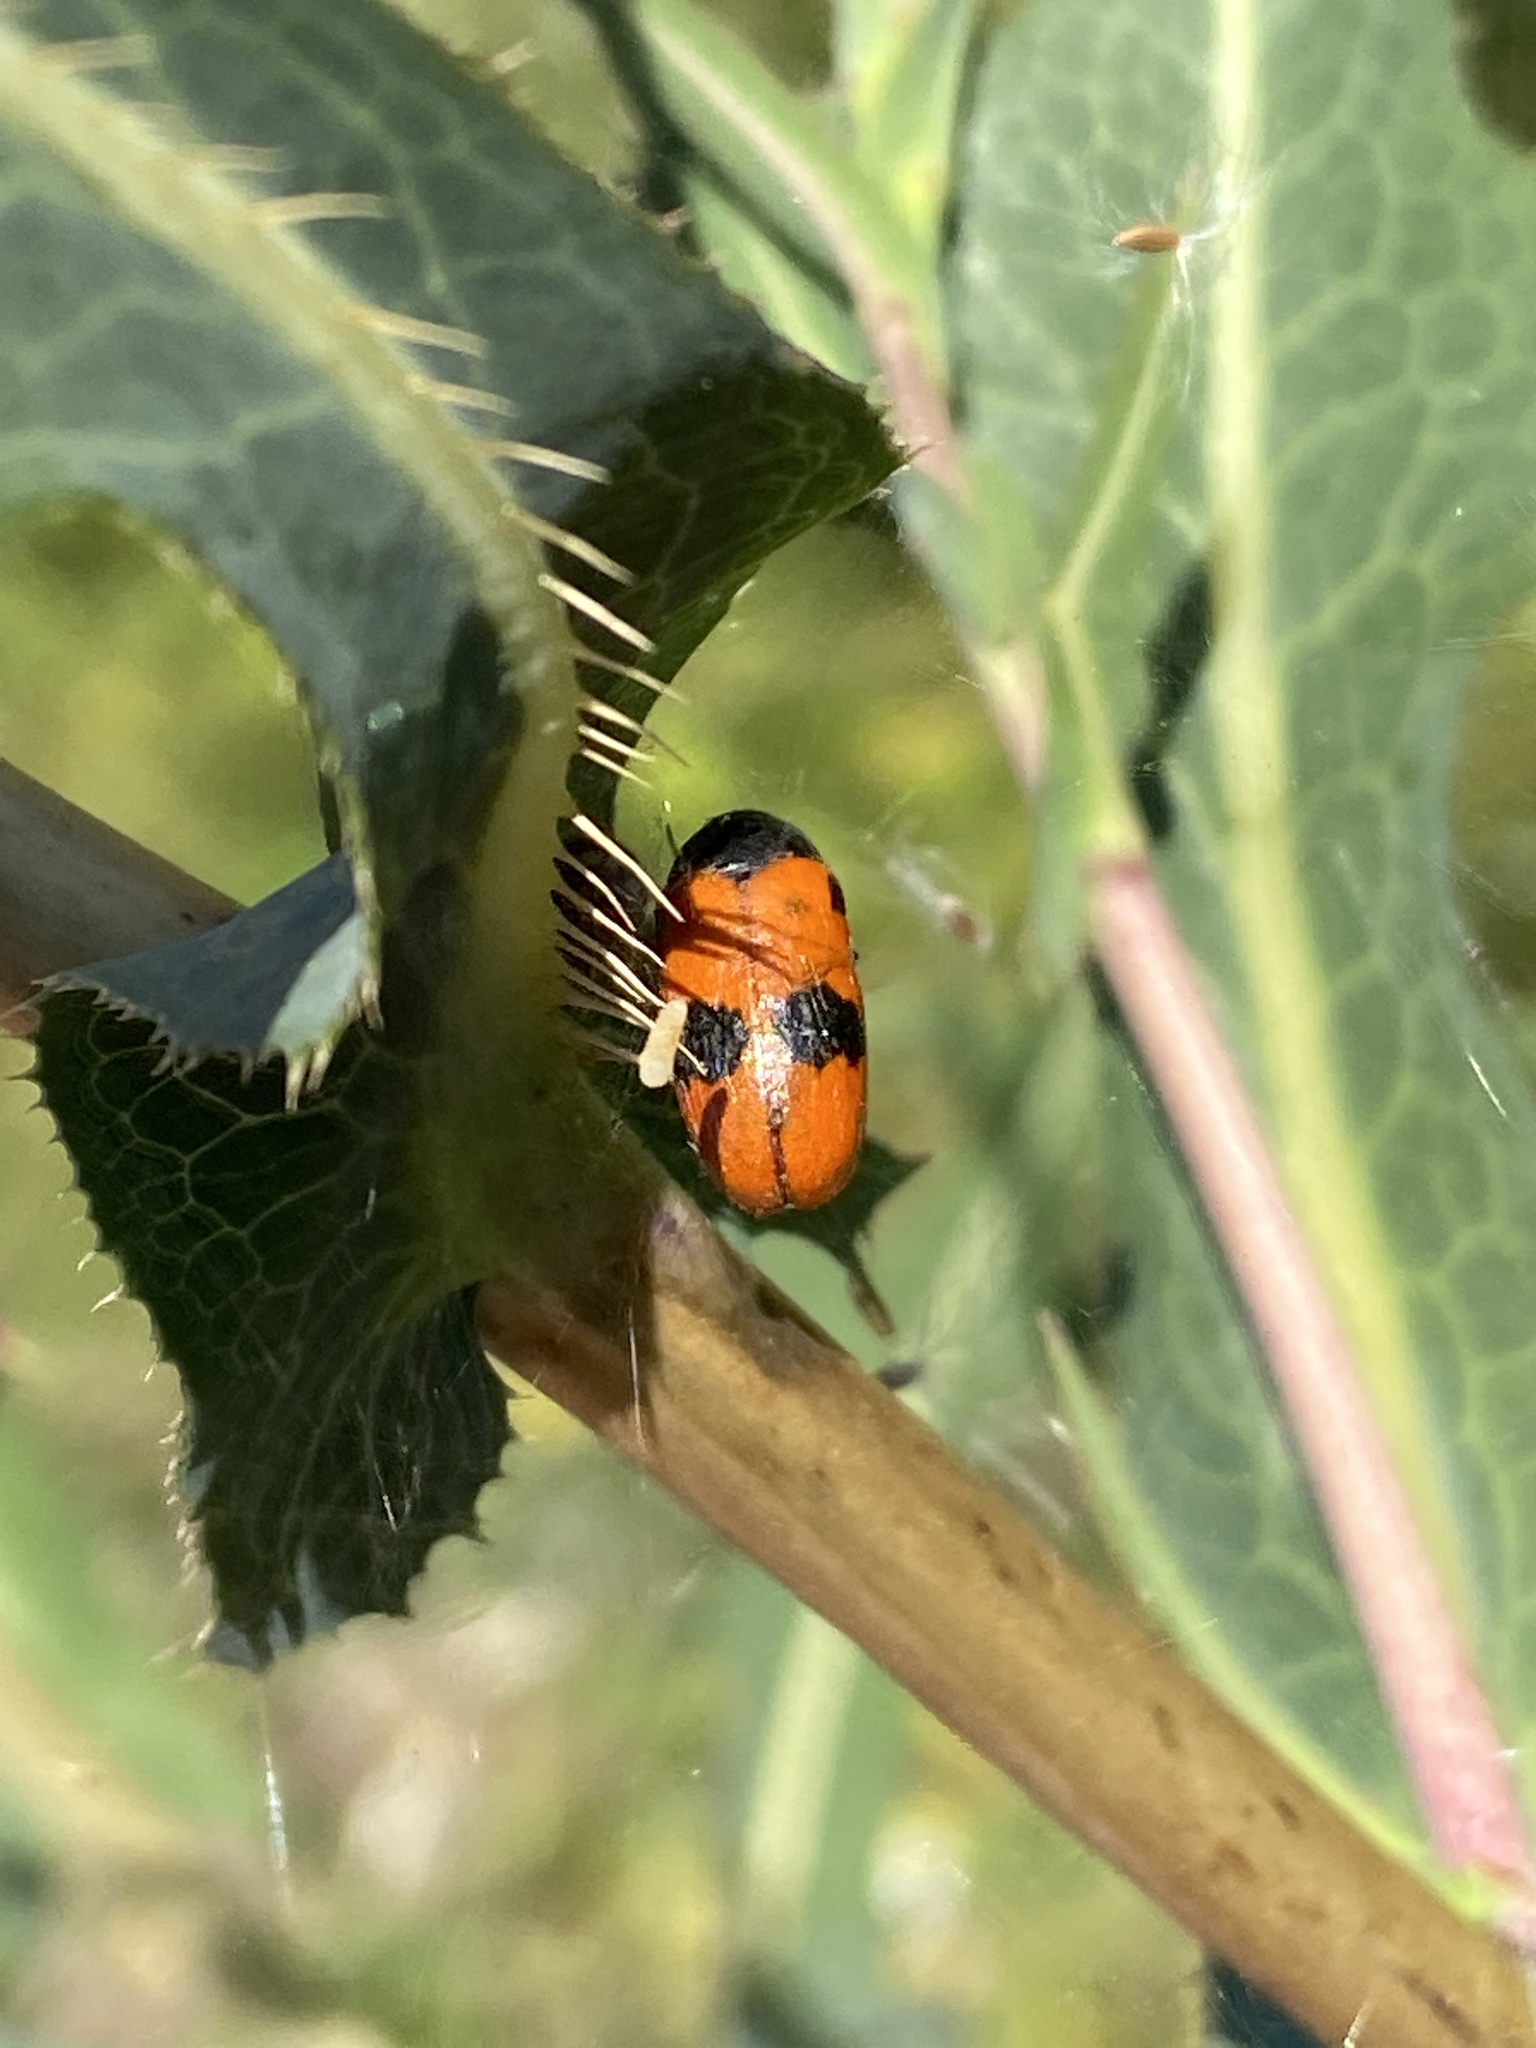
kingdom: Animalia
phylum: Arthropoda
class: Insecta
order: Coleoptera
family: Chrysomelidae
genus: Clytra
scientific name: Clytra laeviuscula
